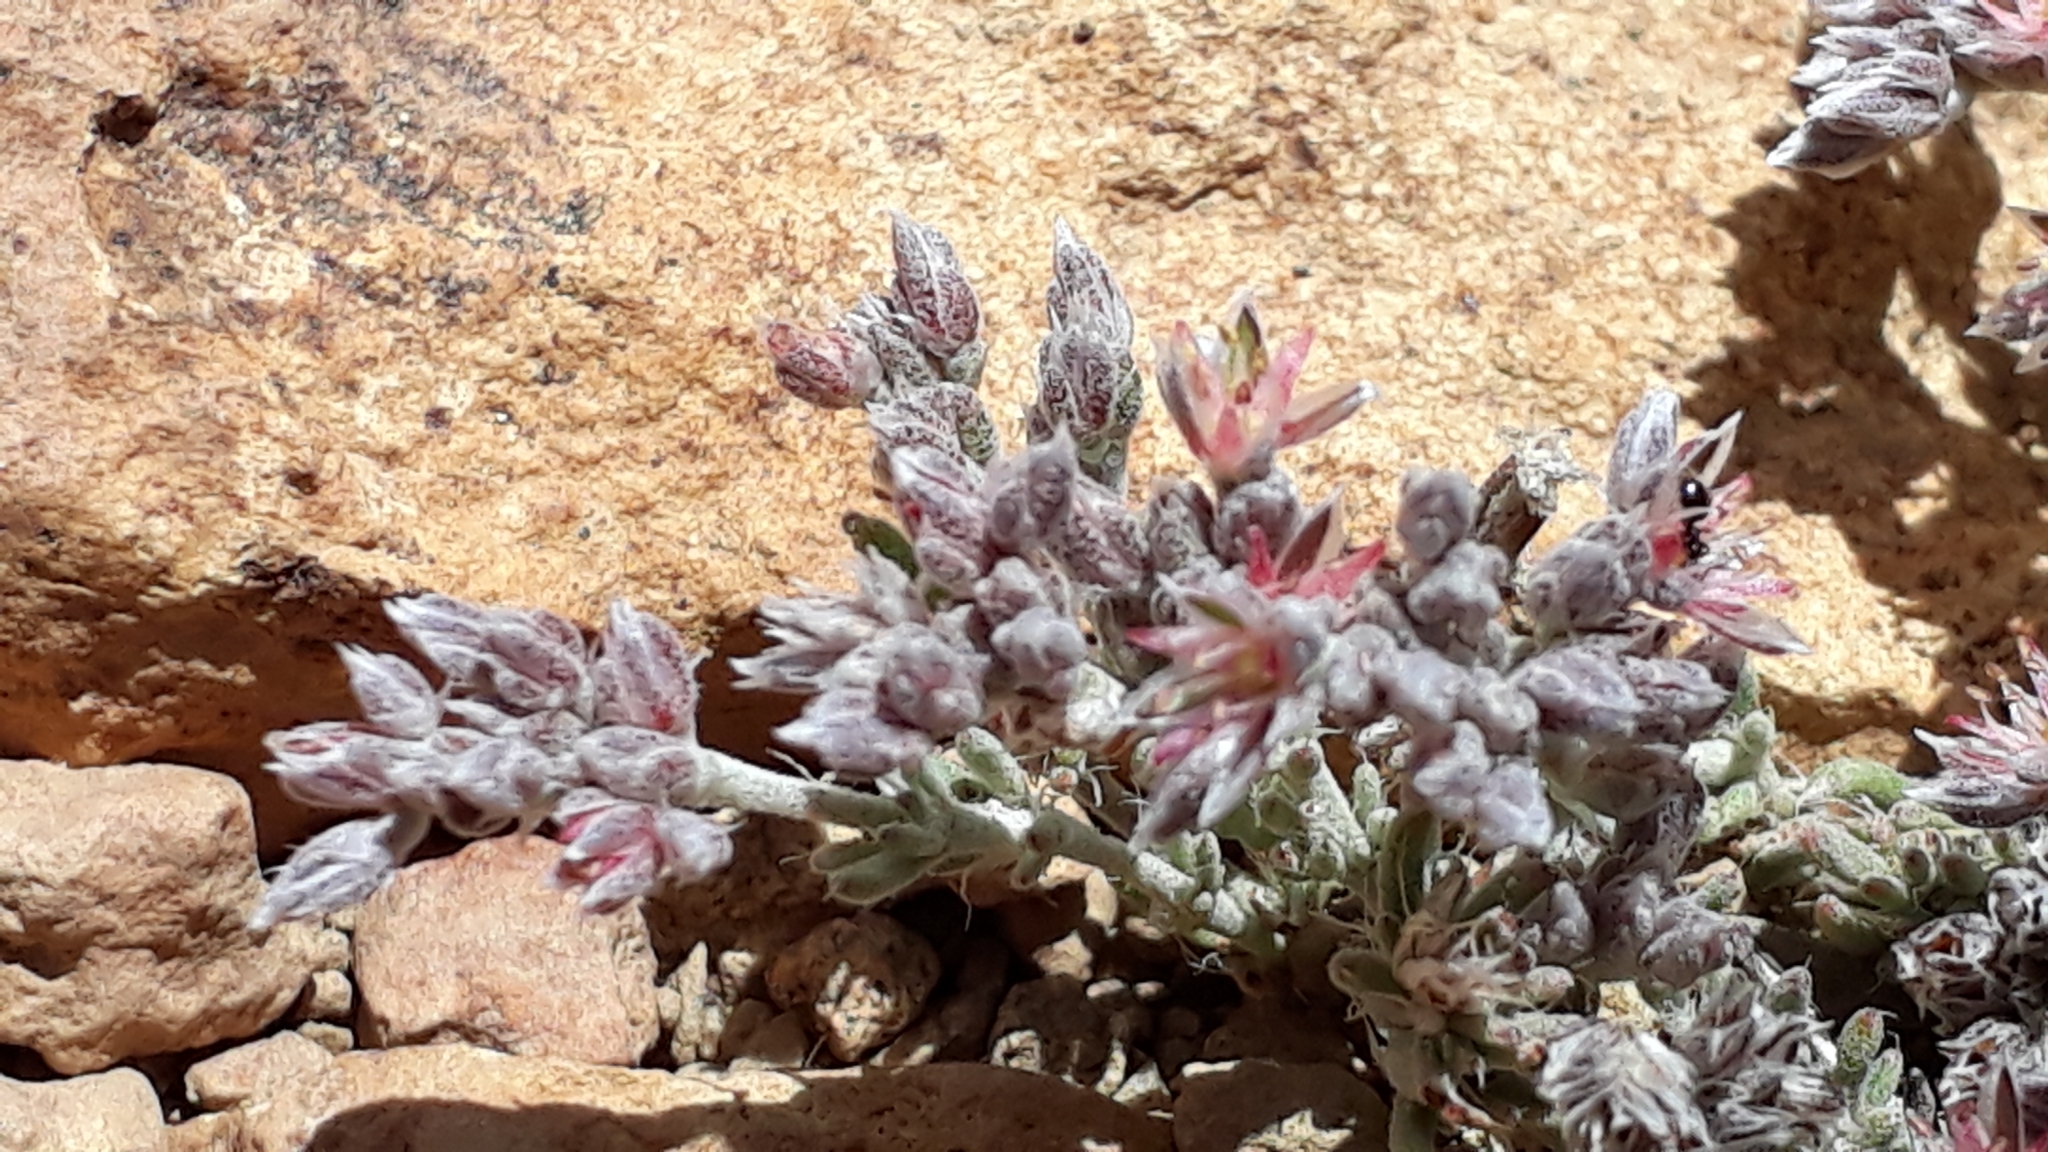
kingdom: Plantae
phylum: Tracheophyta
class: Magnoliopsida
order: Caryophyllales
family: Caryophyllaceae
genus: Polycarpaea
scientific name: Polycarpaea tenuis
